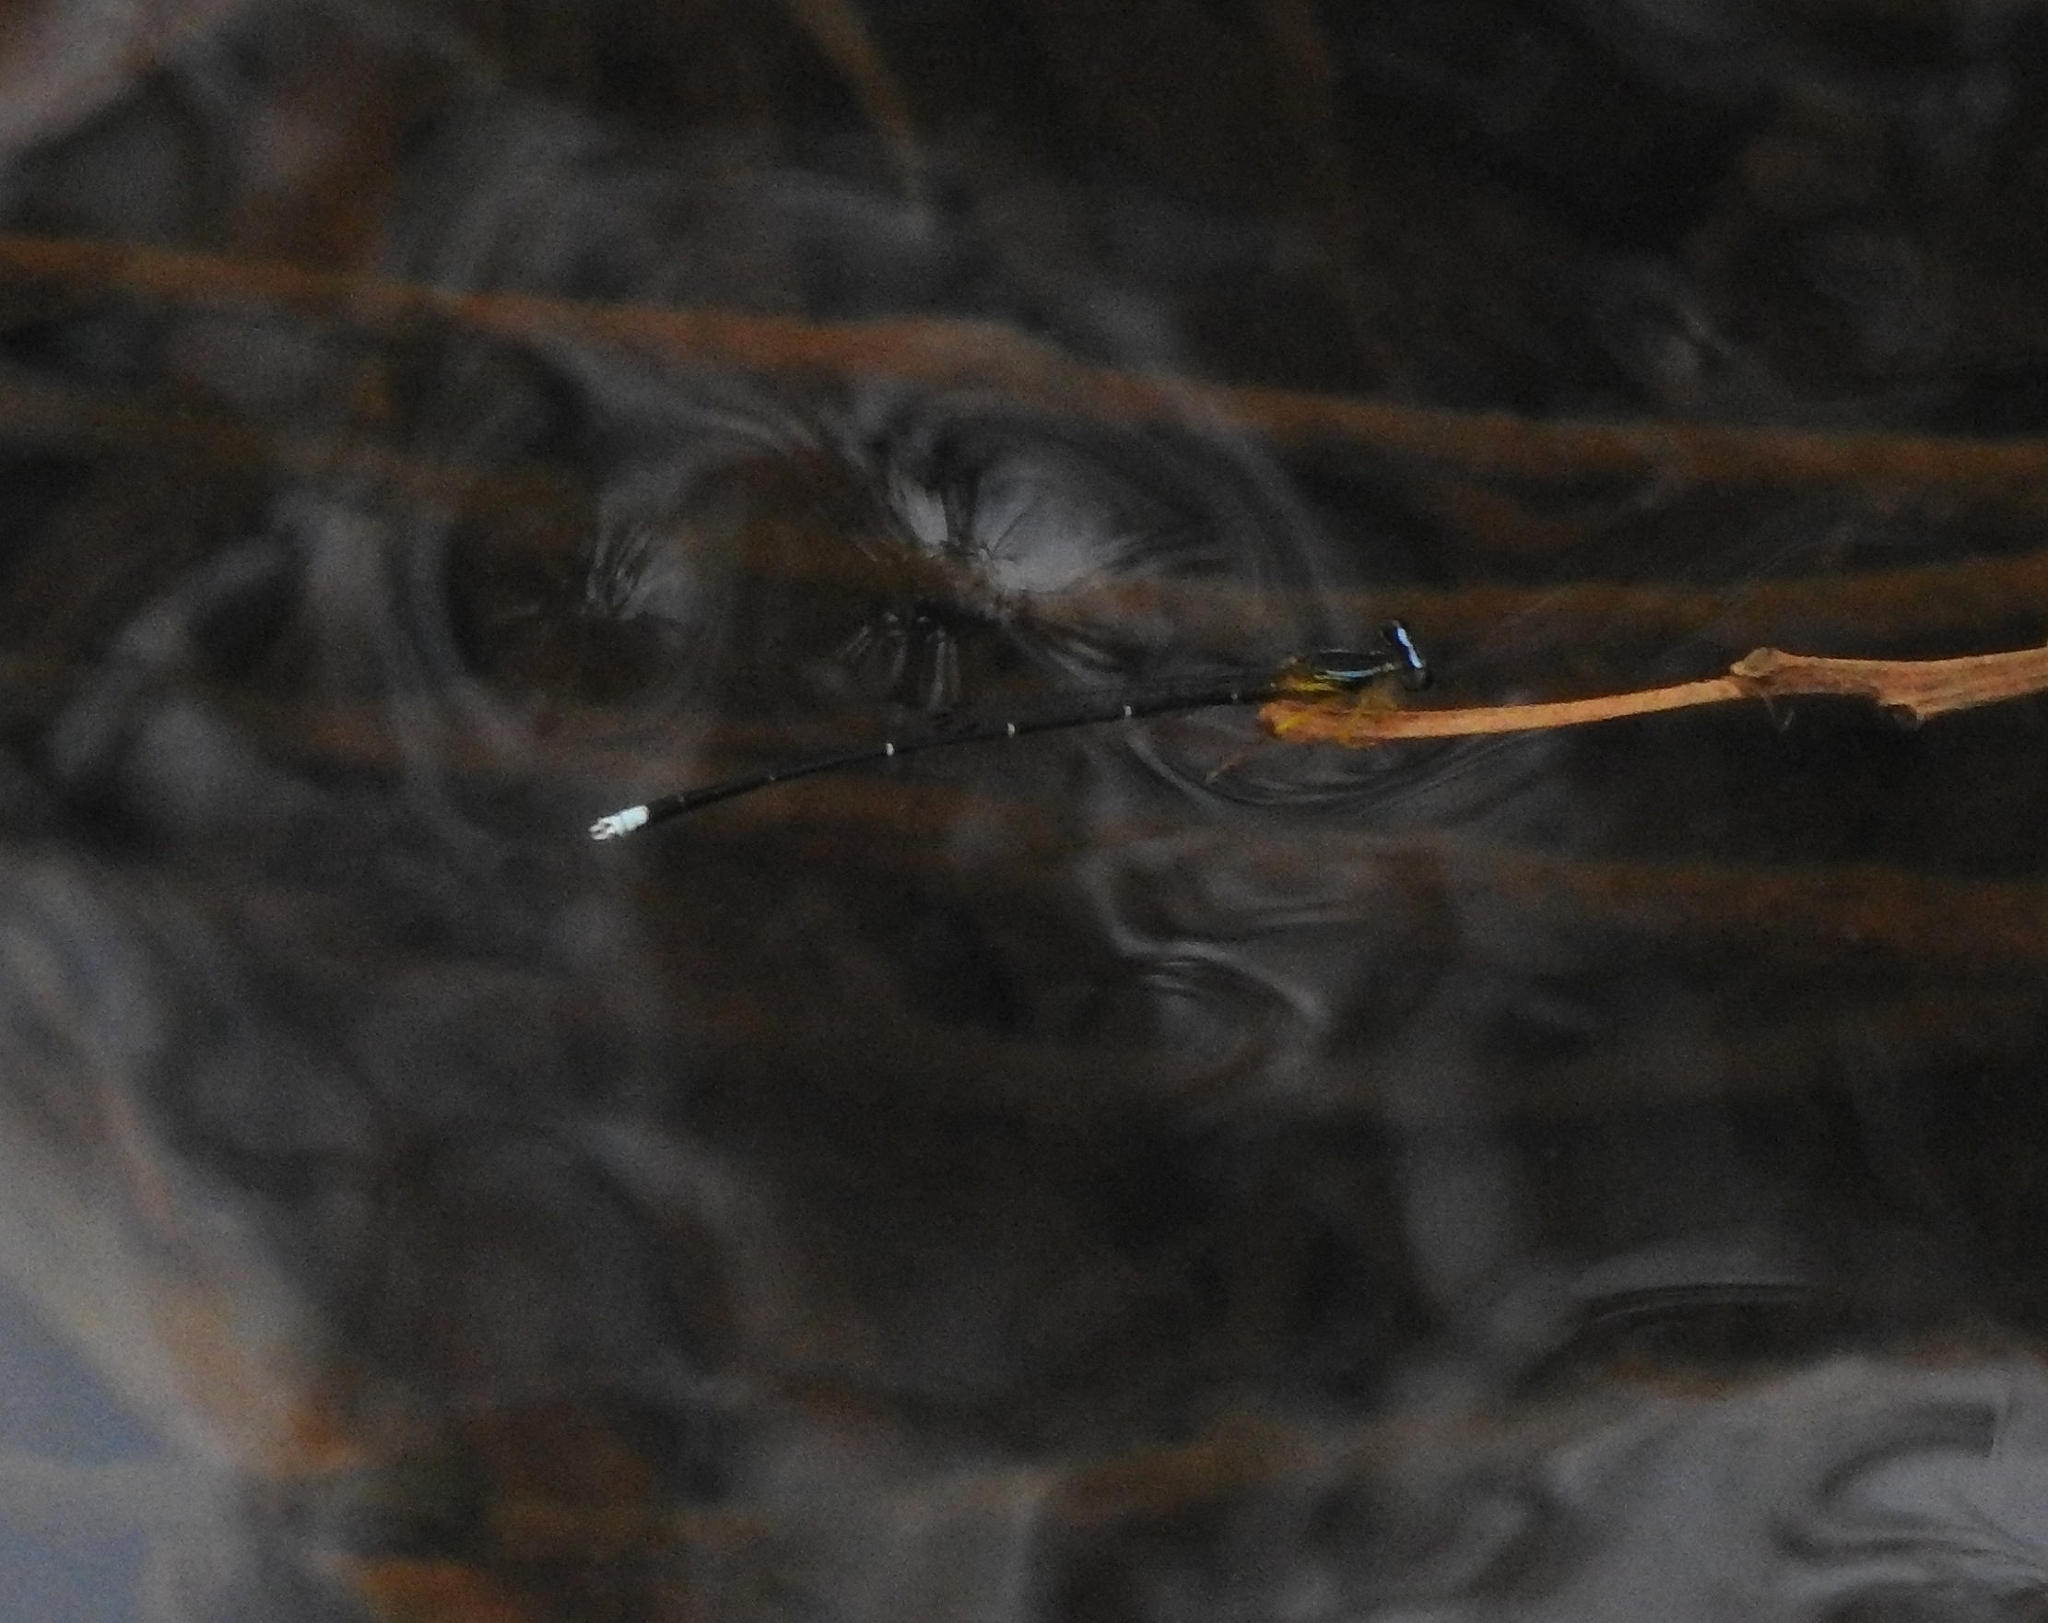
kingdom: Animalia
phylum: Arthropoda
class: Insecta
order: Odonata
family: Platycnemididae
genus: Copera
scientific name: Copera vittata
